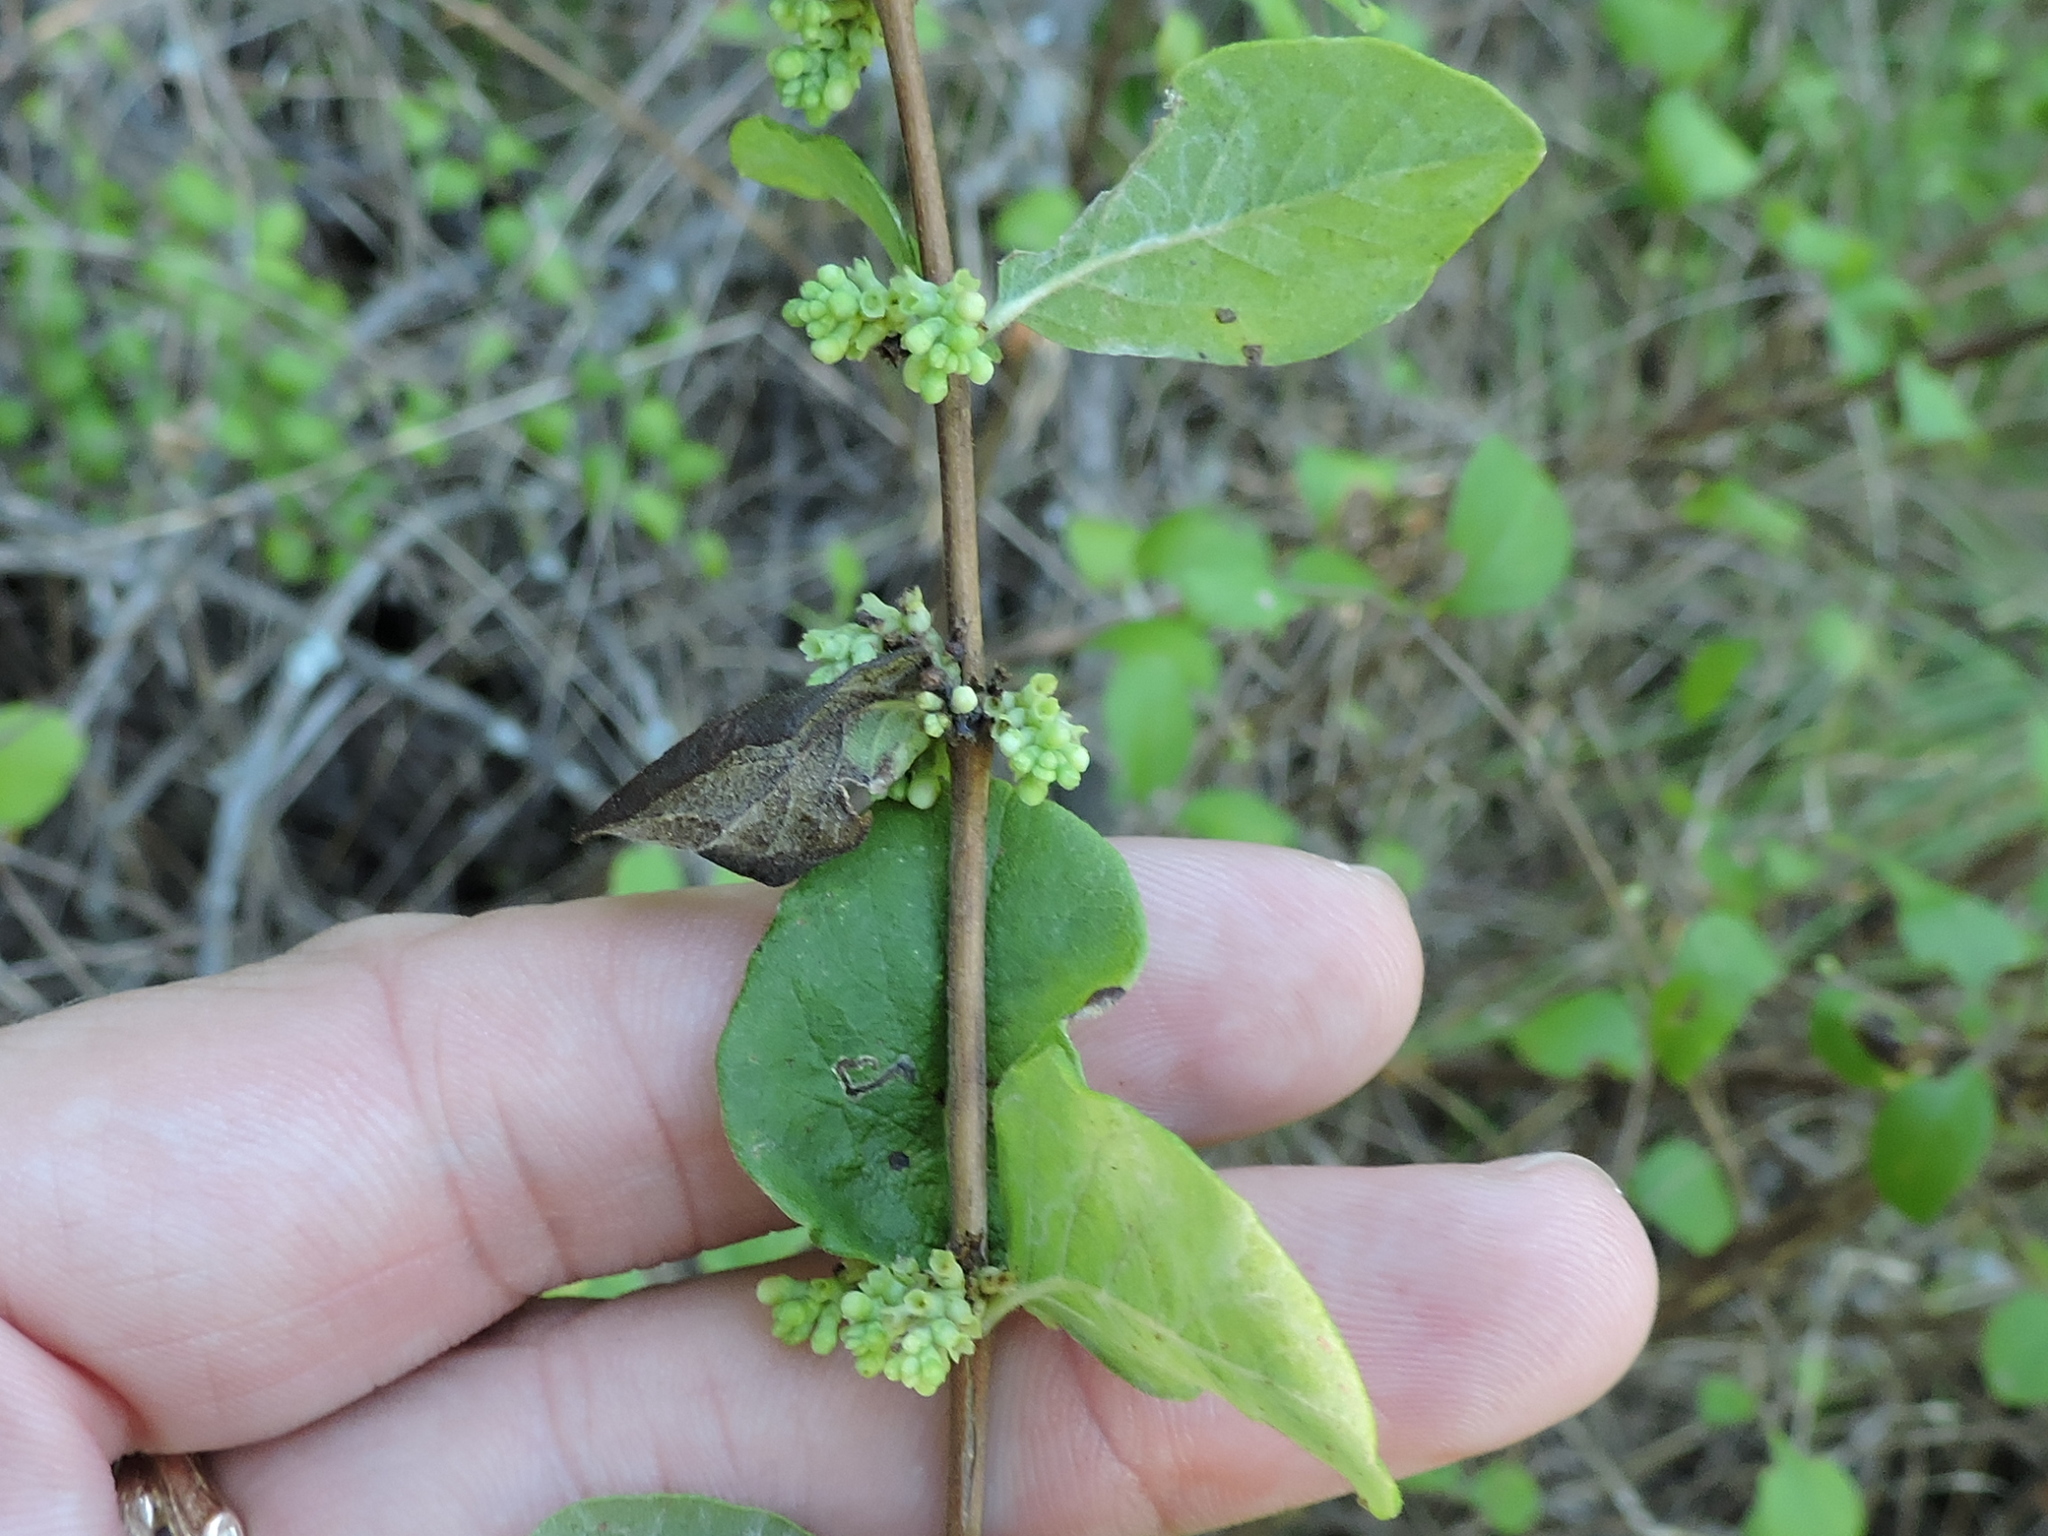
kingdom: Plantae
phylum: Tracheophyta
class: Magnoliopsida
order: Dipsacales
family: Caprifoliaceae
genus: Symphoricarpos
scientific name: Symphoricarpos orbiculatus
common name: Coralberry
